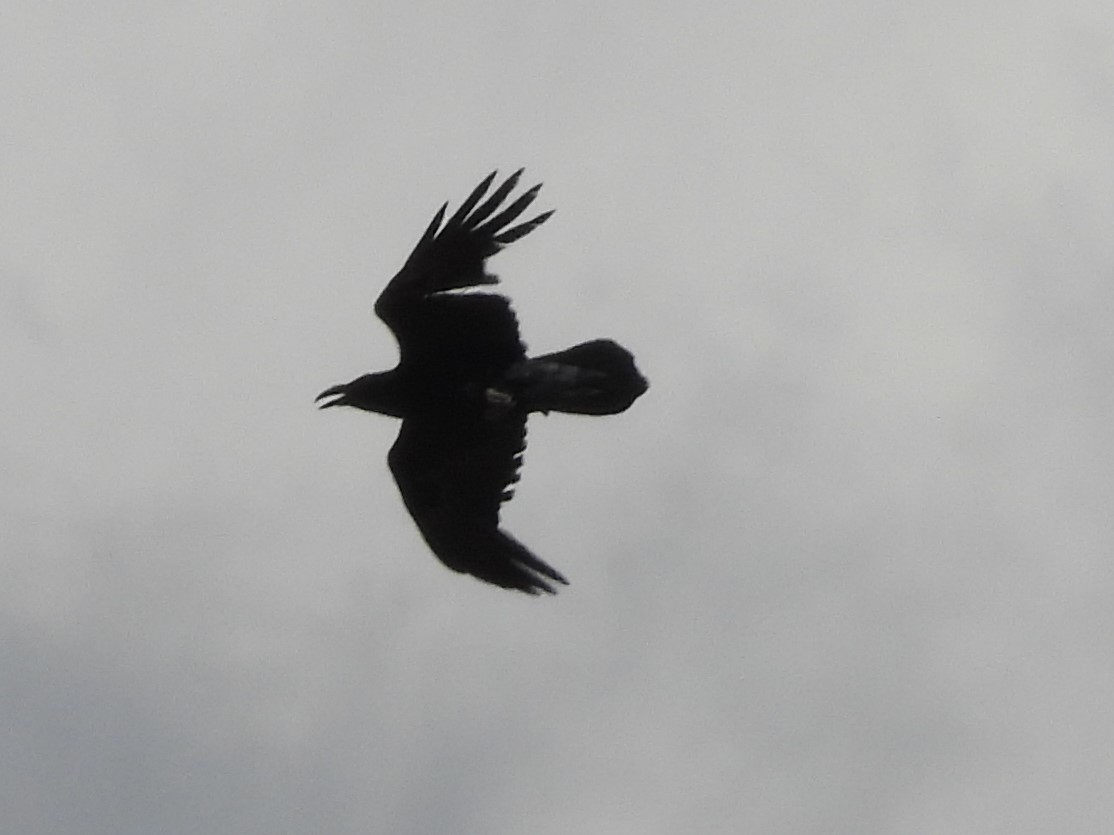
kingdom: Animalia
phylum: Chordata
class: Aves
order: Passeriformes
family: Corvidae
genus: Corvus
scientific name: Corvus corax
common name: Common raven
